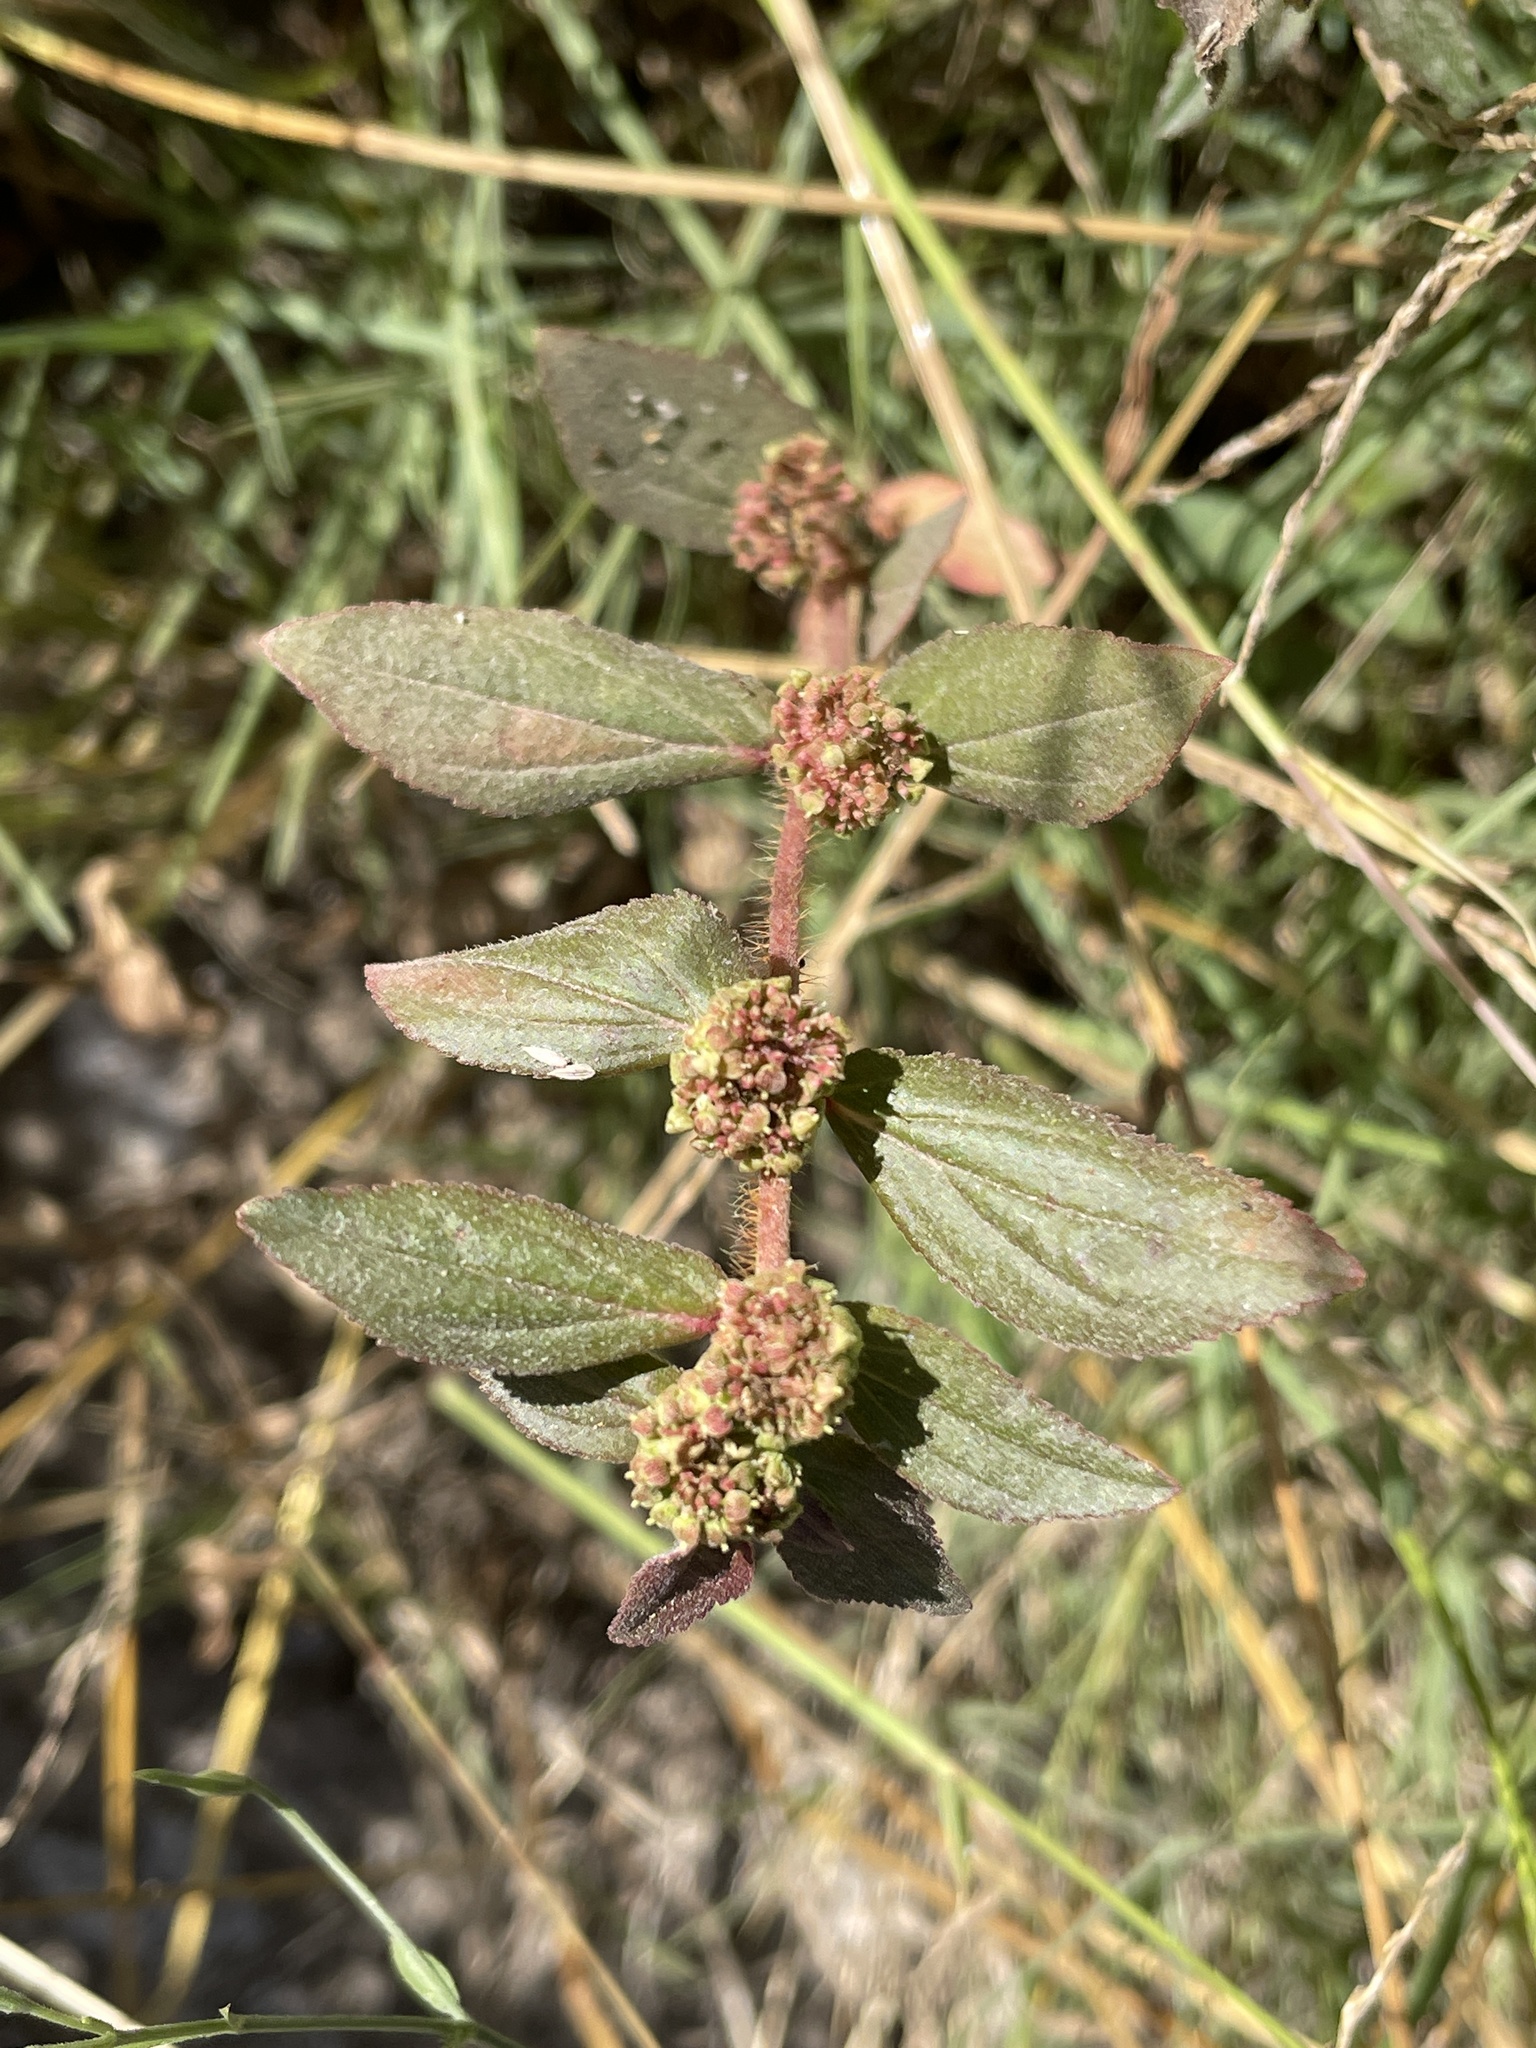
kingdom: Plantae
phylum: Tracheophyta
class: Magnoliopsida
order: Malpighiales
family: Euphorbiaceae
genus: Euphorbia
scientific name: Euphorbia hirta
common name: Pillpod sandmat
